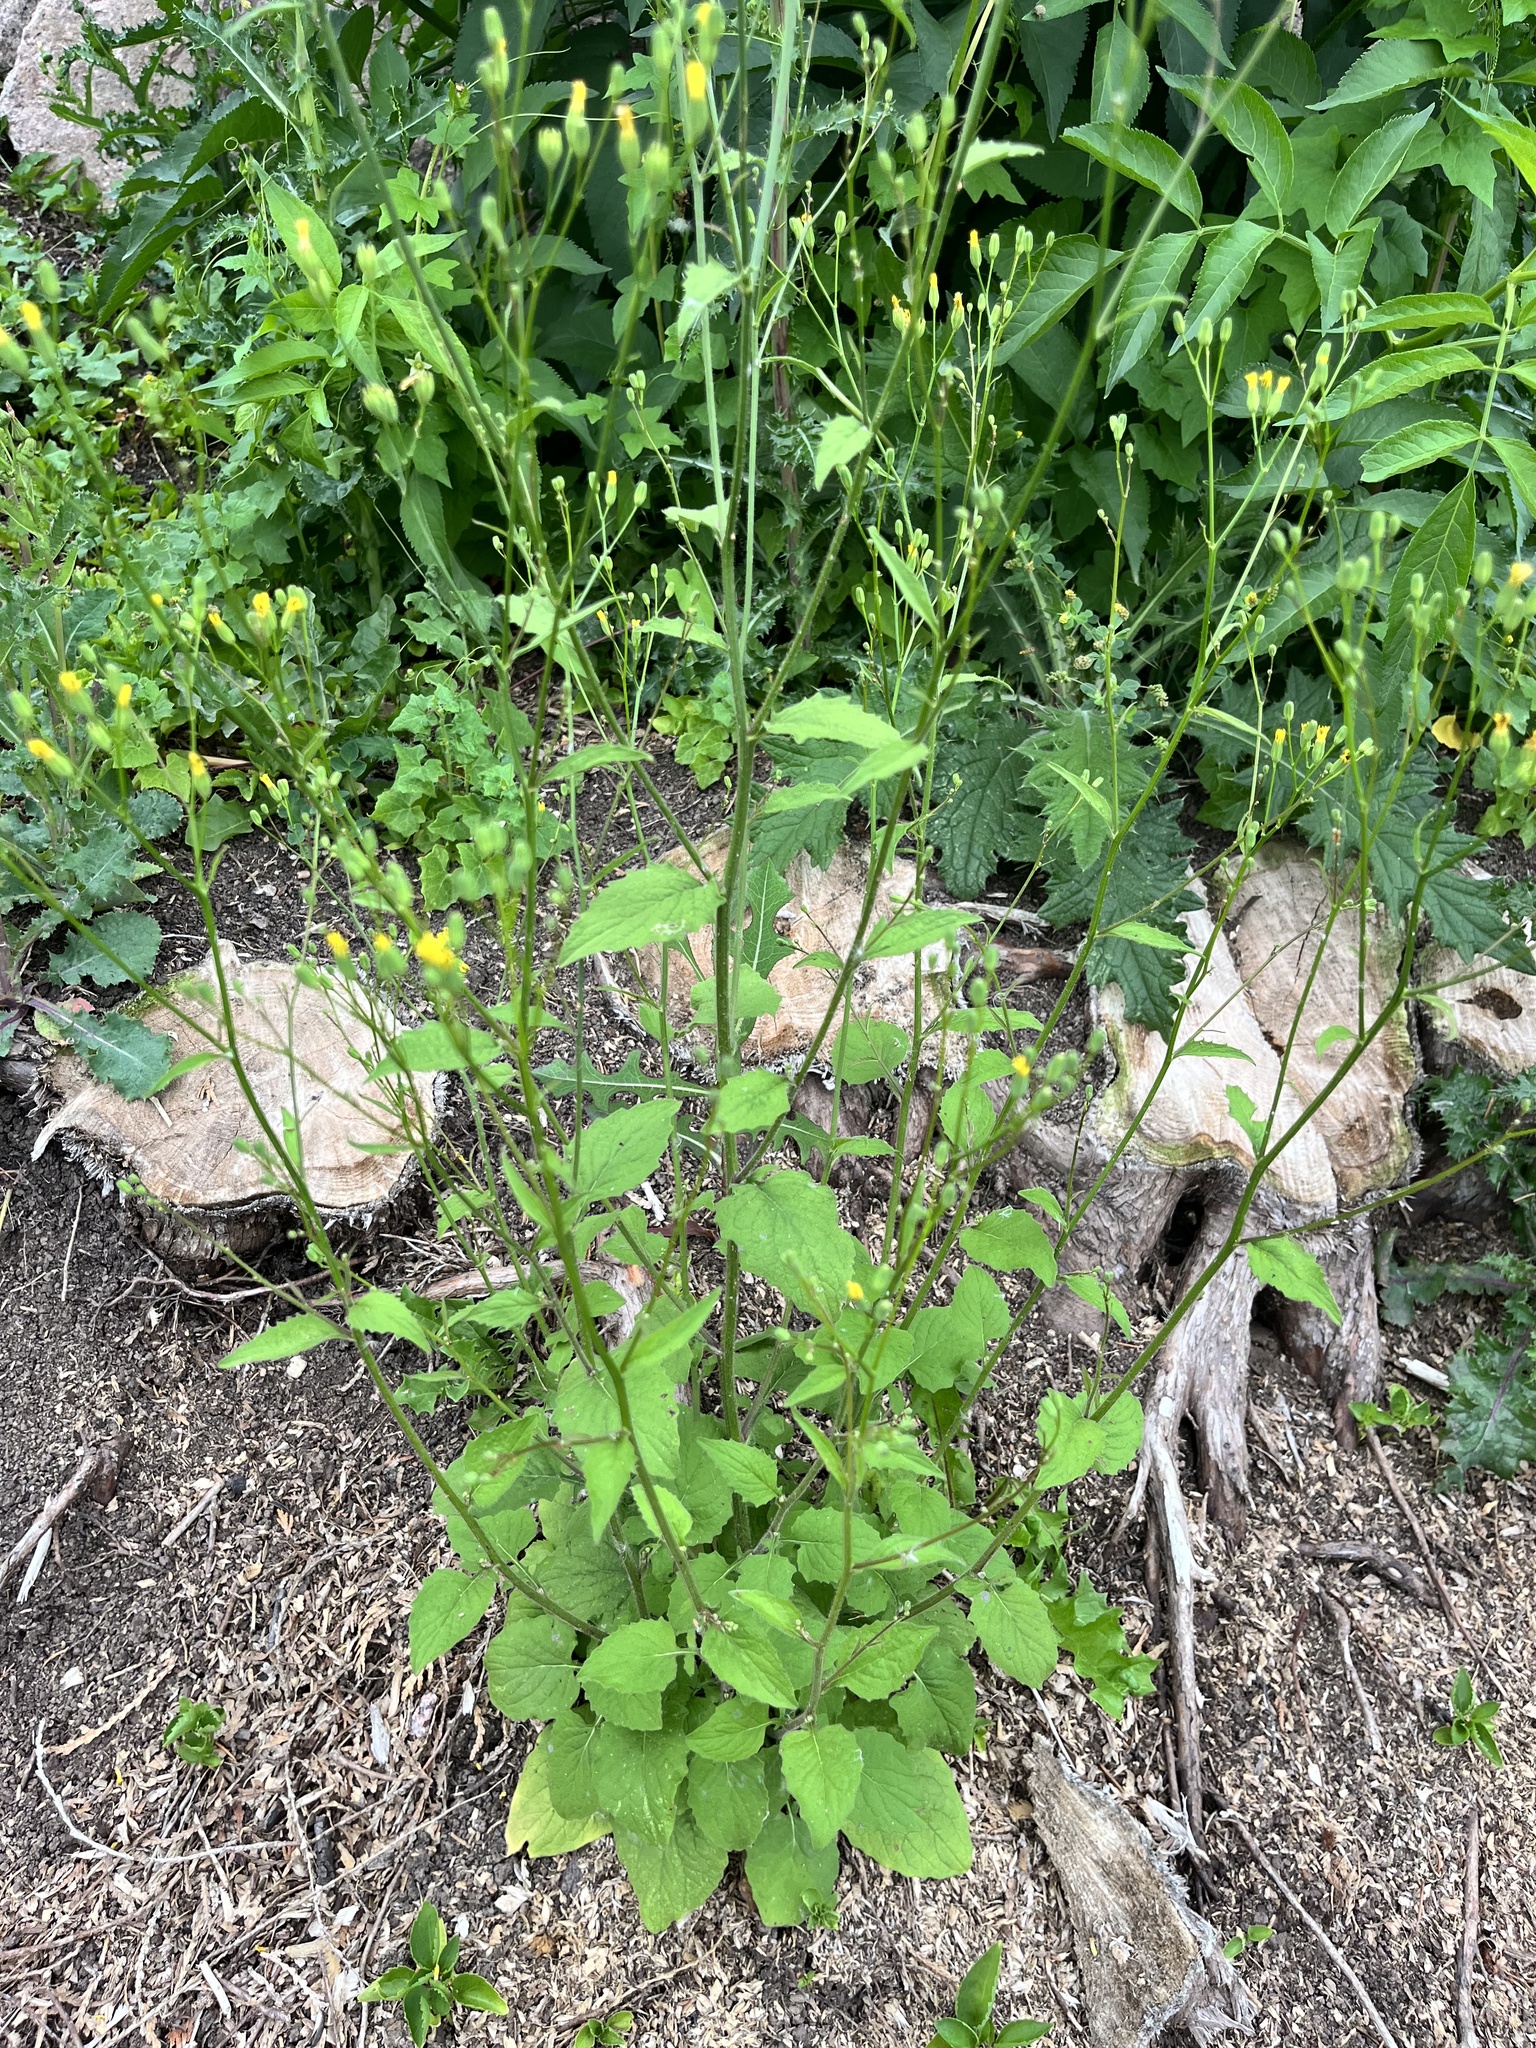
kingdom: Plantae
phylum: Tracheophyta
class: Magnoliopsida
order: Asterales
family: Asteraceae
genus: Lapsana
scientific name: Lapsana communis
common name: Nipplewort
